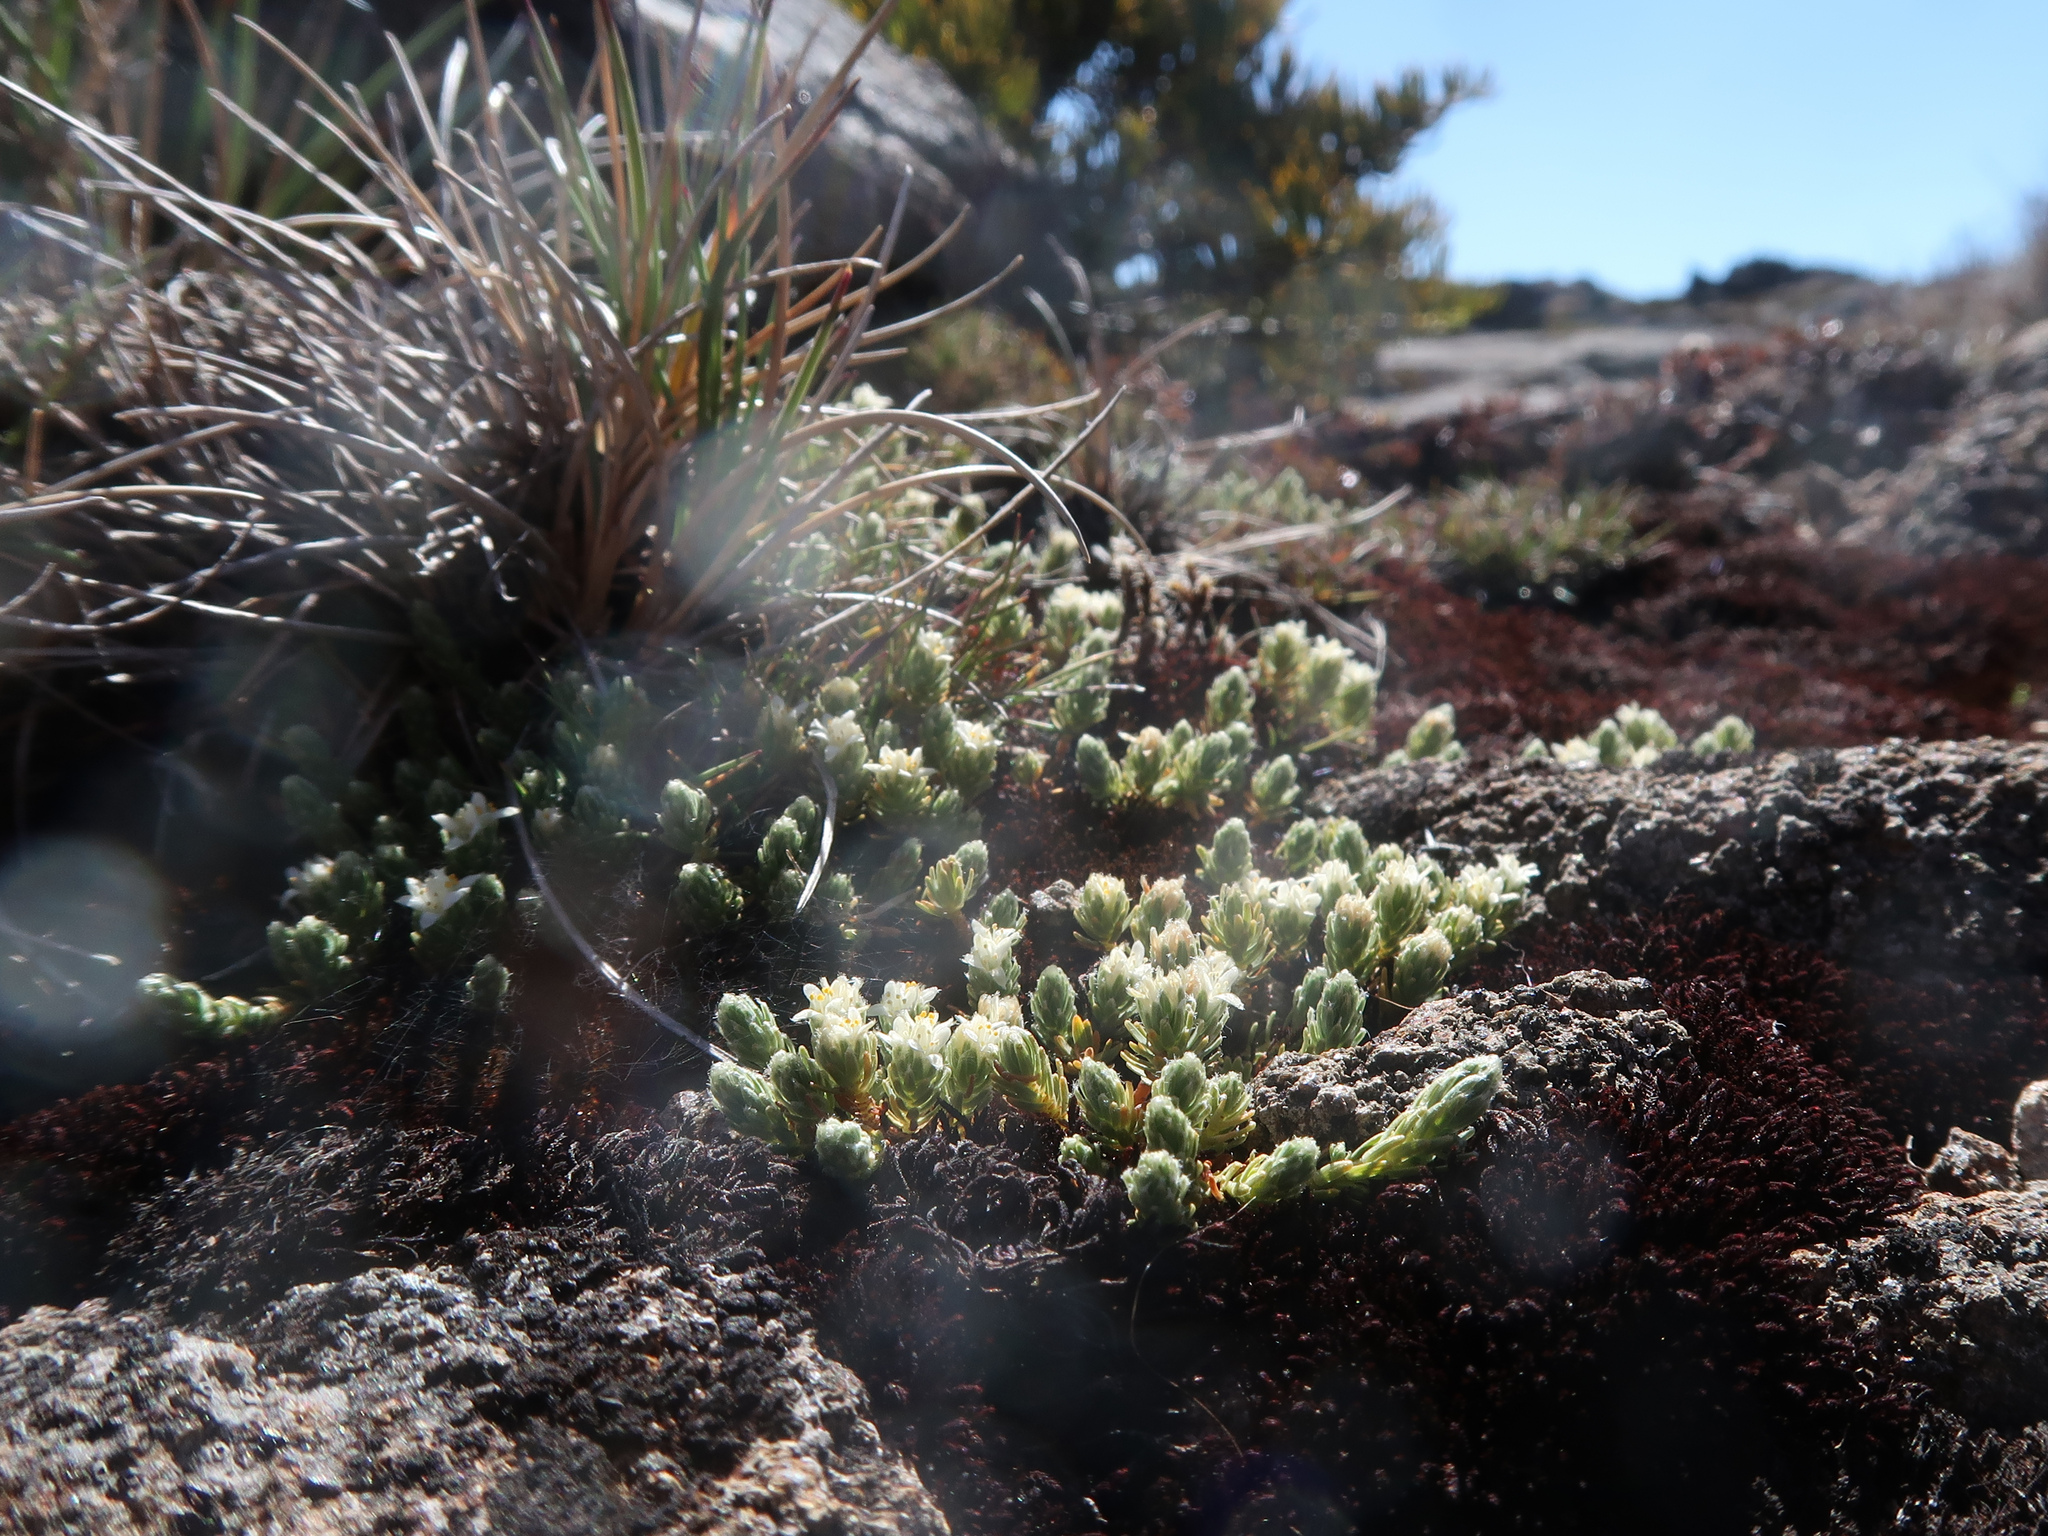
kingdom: Plantae
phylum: Tracheophyta
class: Magnoliopsida
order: Malvales
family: Thymelaeaceae
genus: Kelleria
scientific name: Kelleria dieffenbachii
